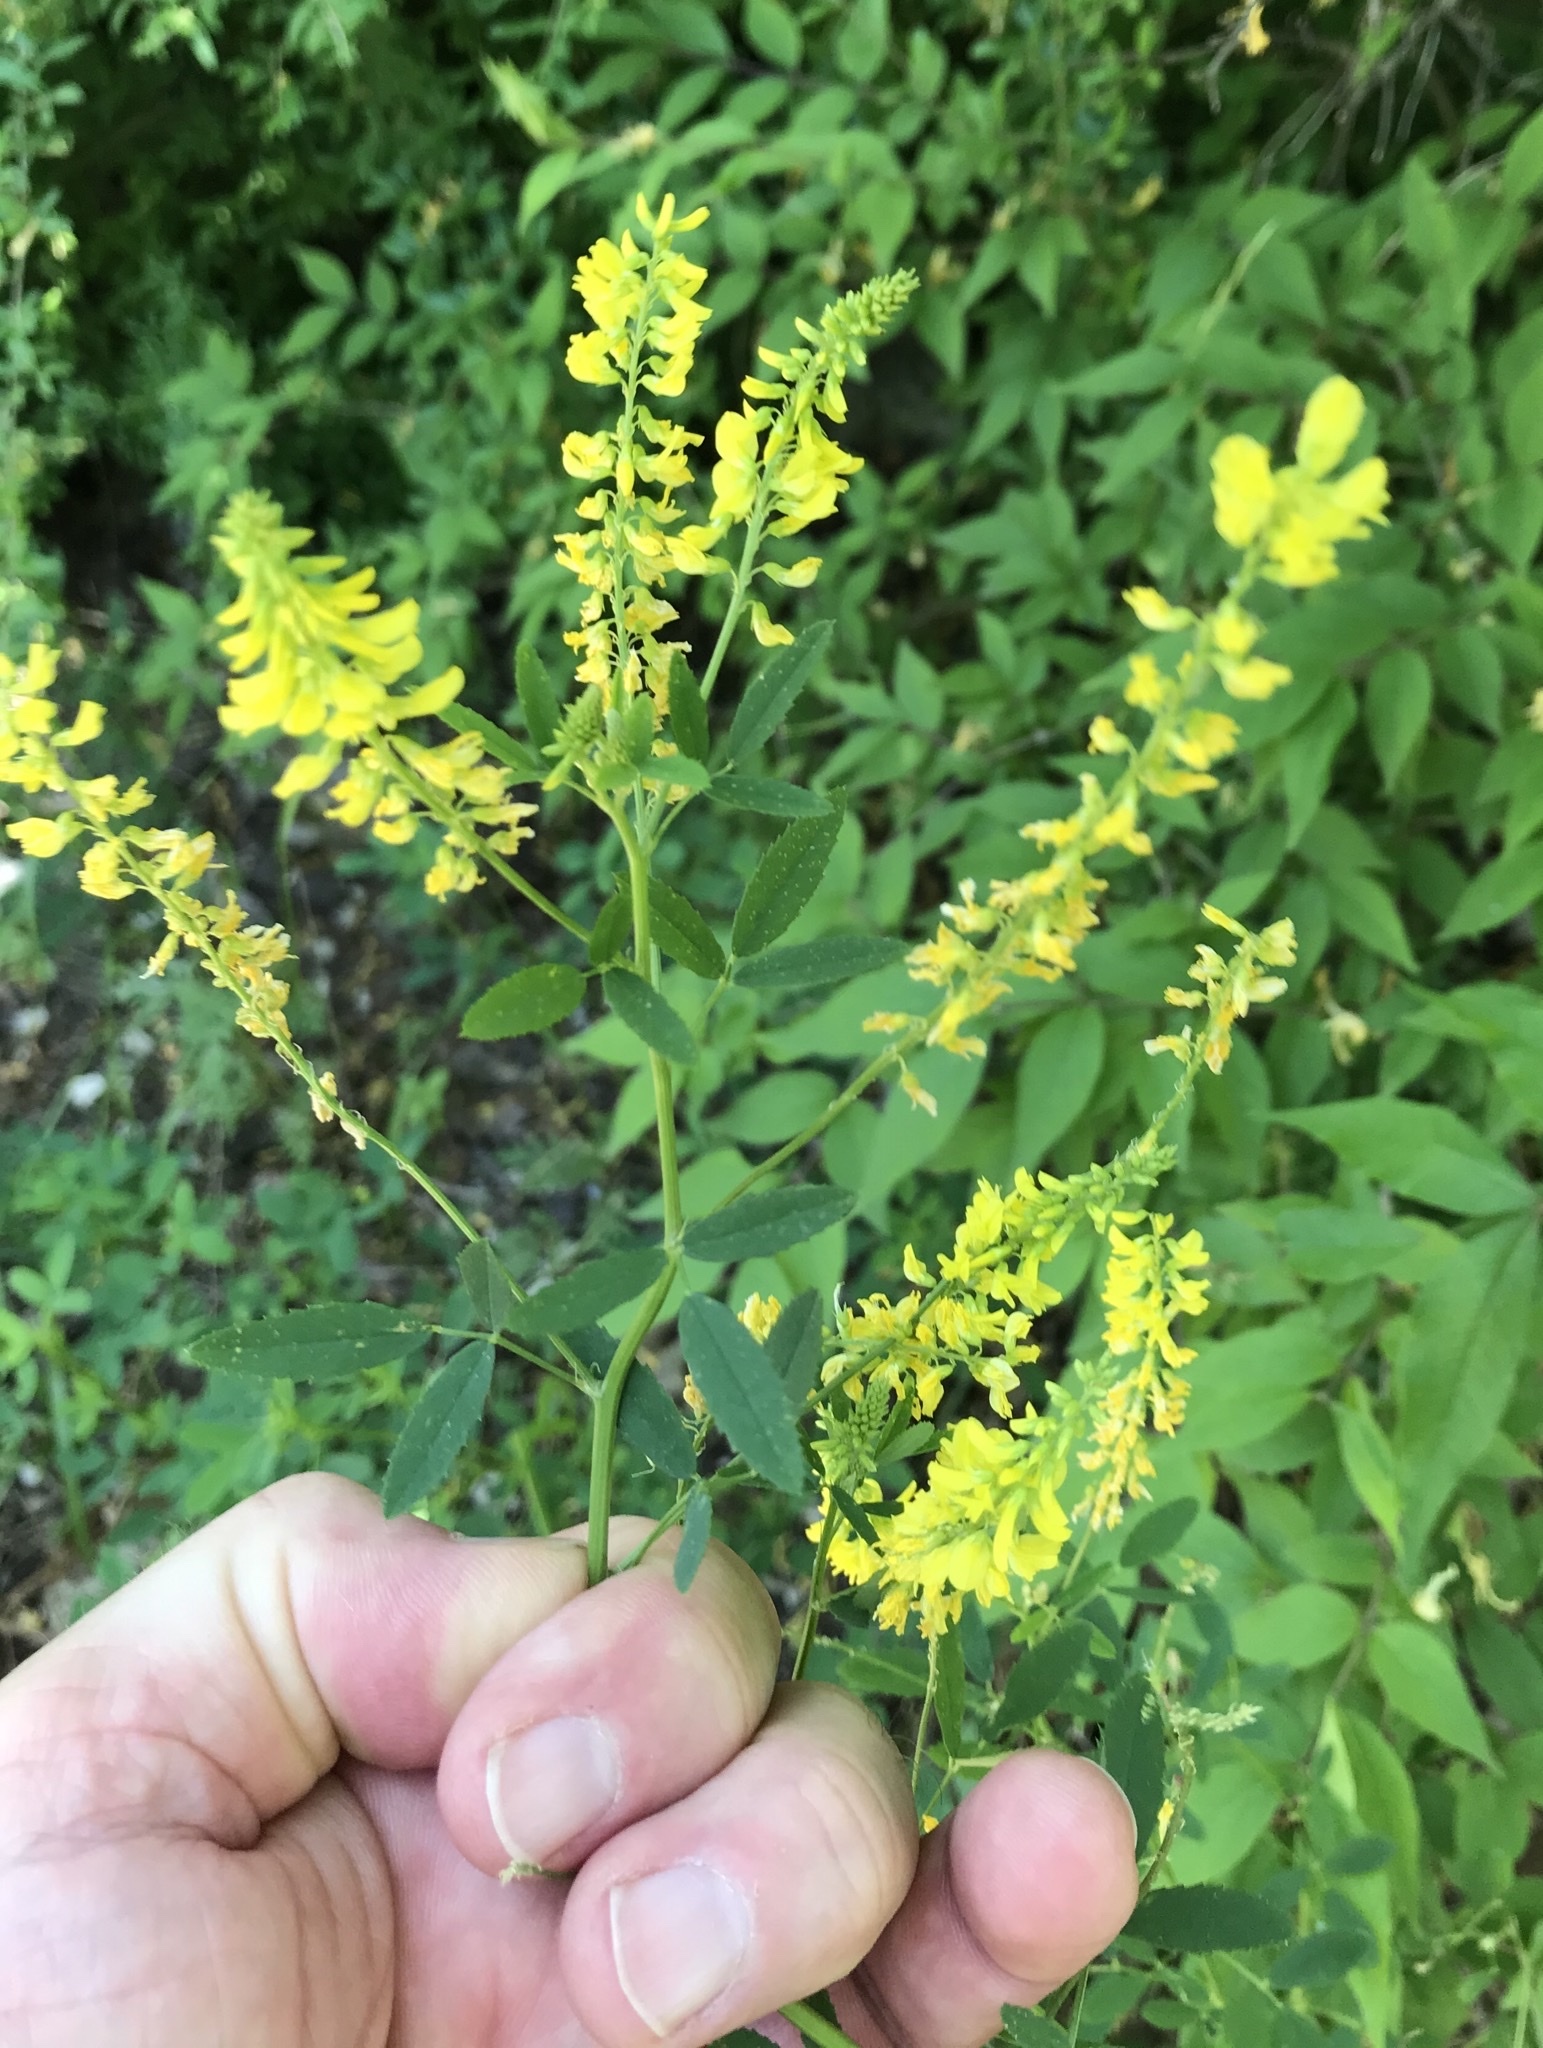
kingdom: Plantae
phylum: Tracheophyta
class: Magnoliopsida
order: Fabales
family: Fabaceae
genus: Melilotus
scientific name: Melilotus officinalis
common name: Sweetclover
